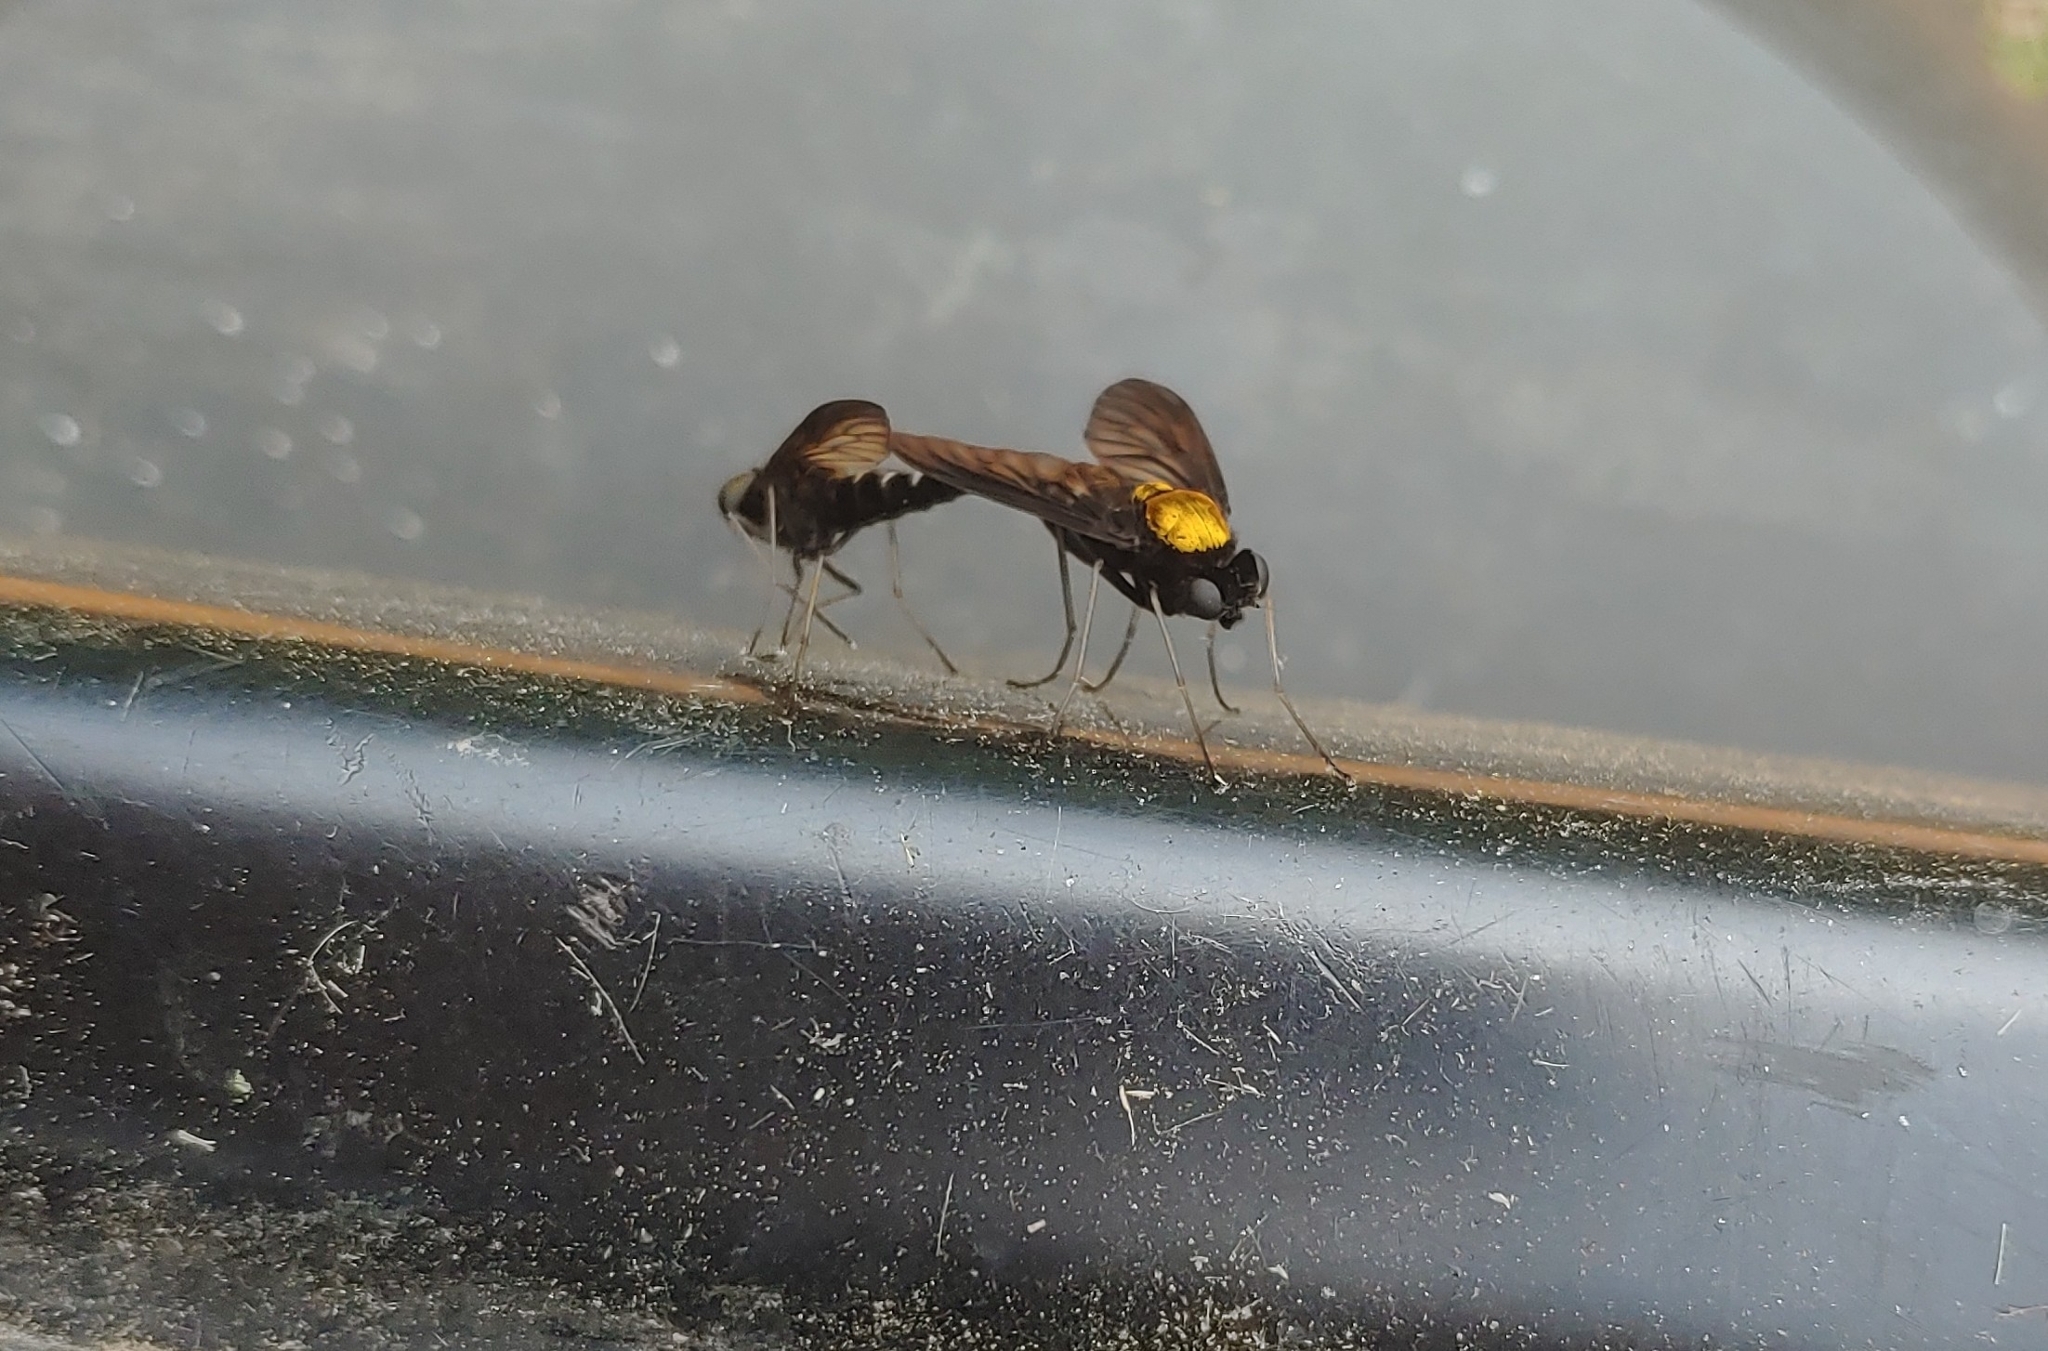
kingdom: Animalia
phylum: Arthropoda
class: Insecta
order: Diptera
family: Rhagionidae
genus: Chrysopilus
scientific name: Chrysopilus thoracicus
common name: Golden-backed snipe fly
